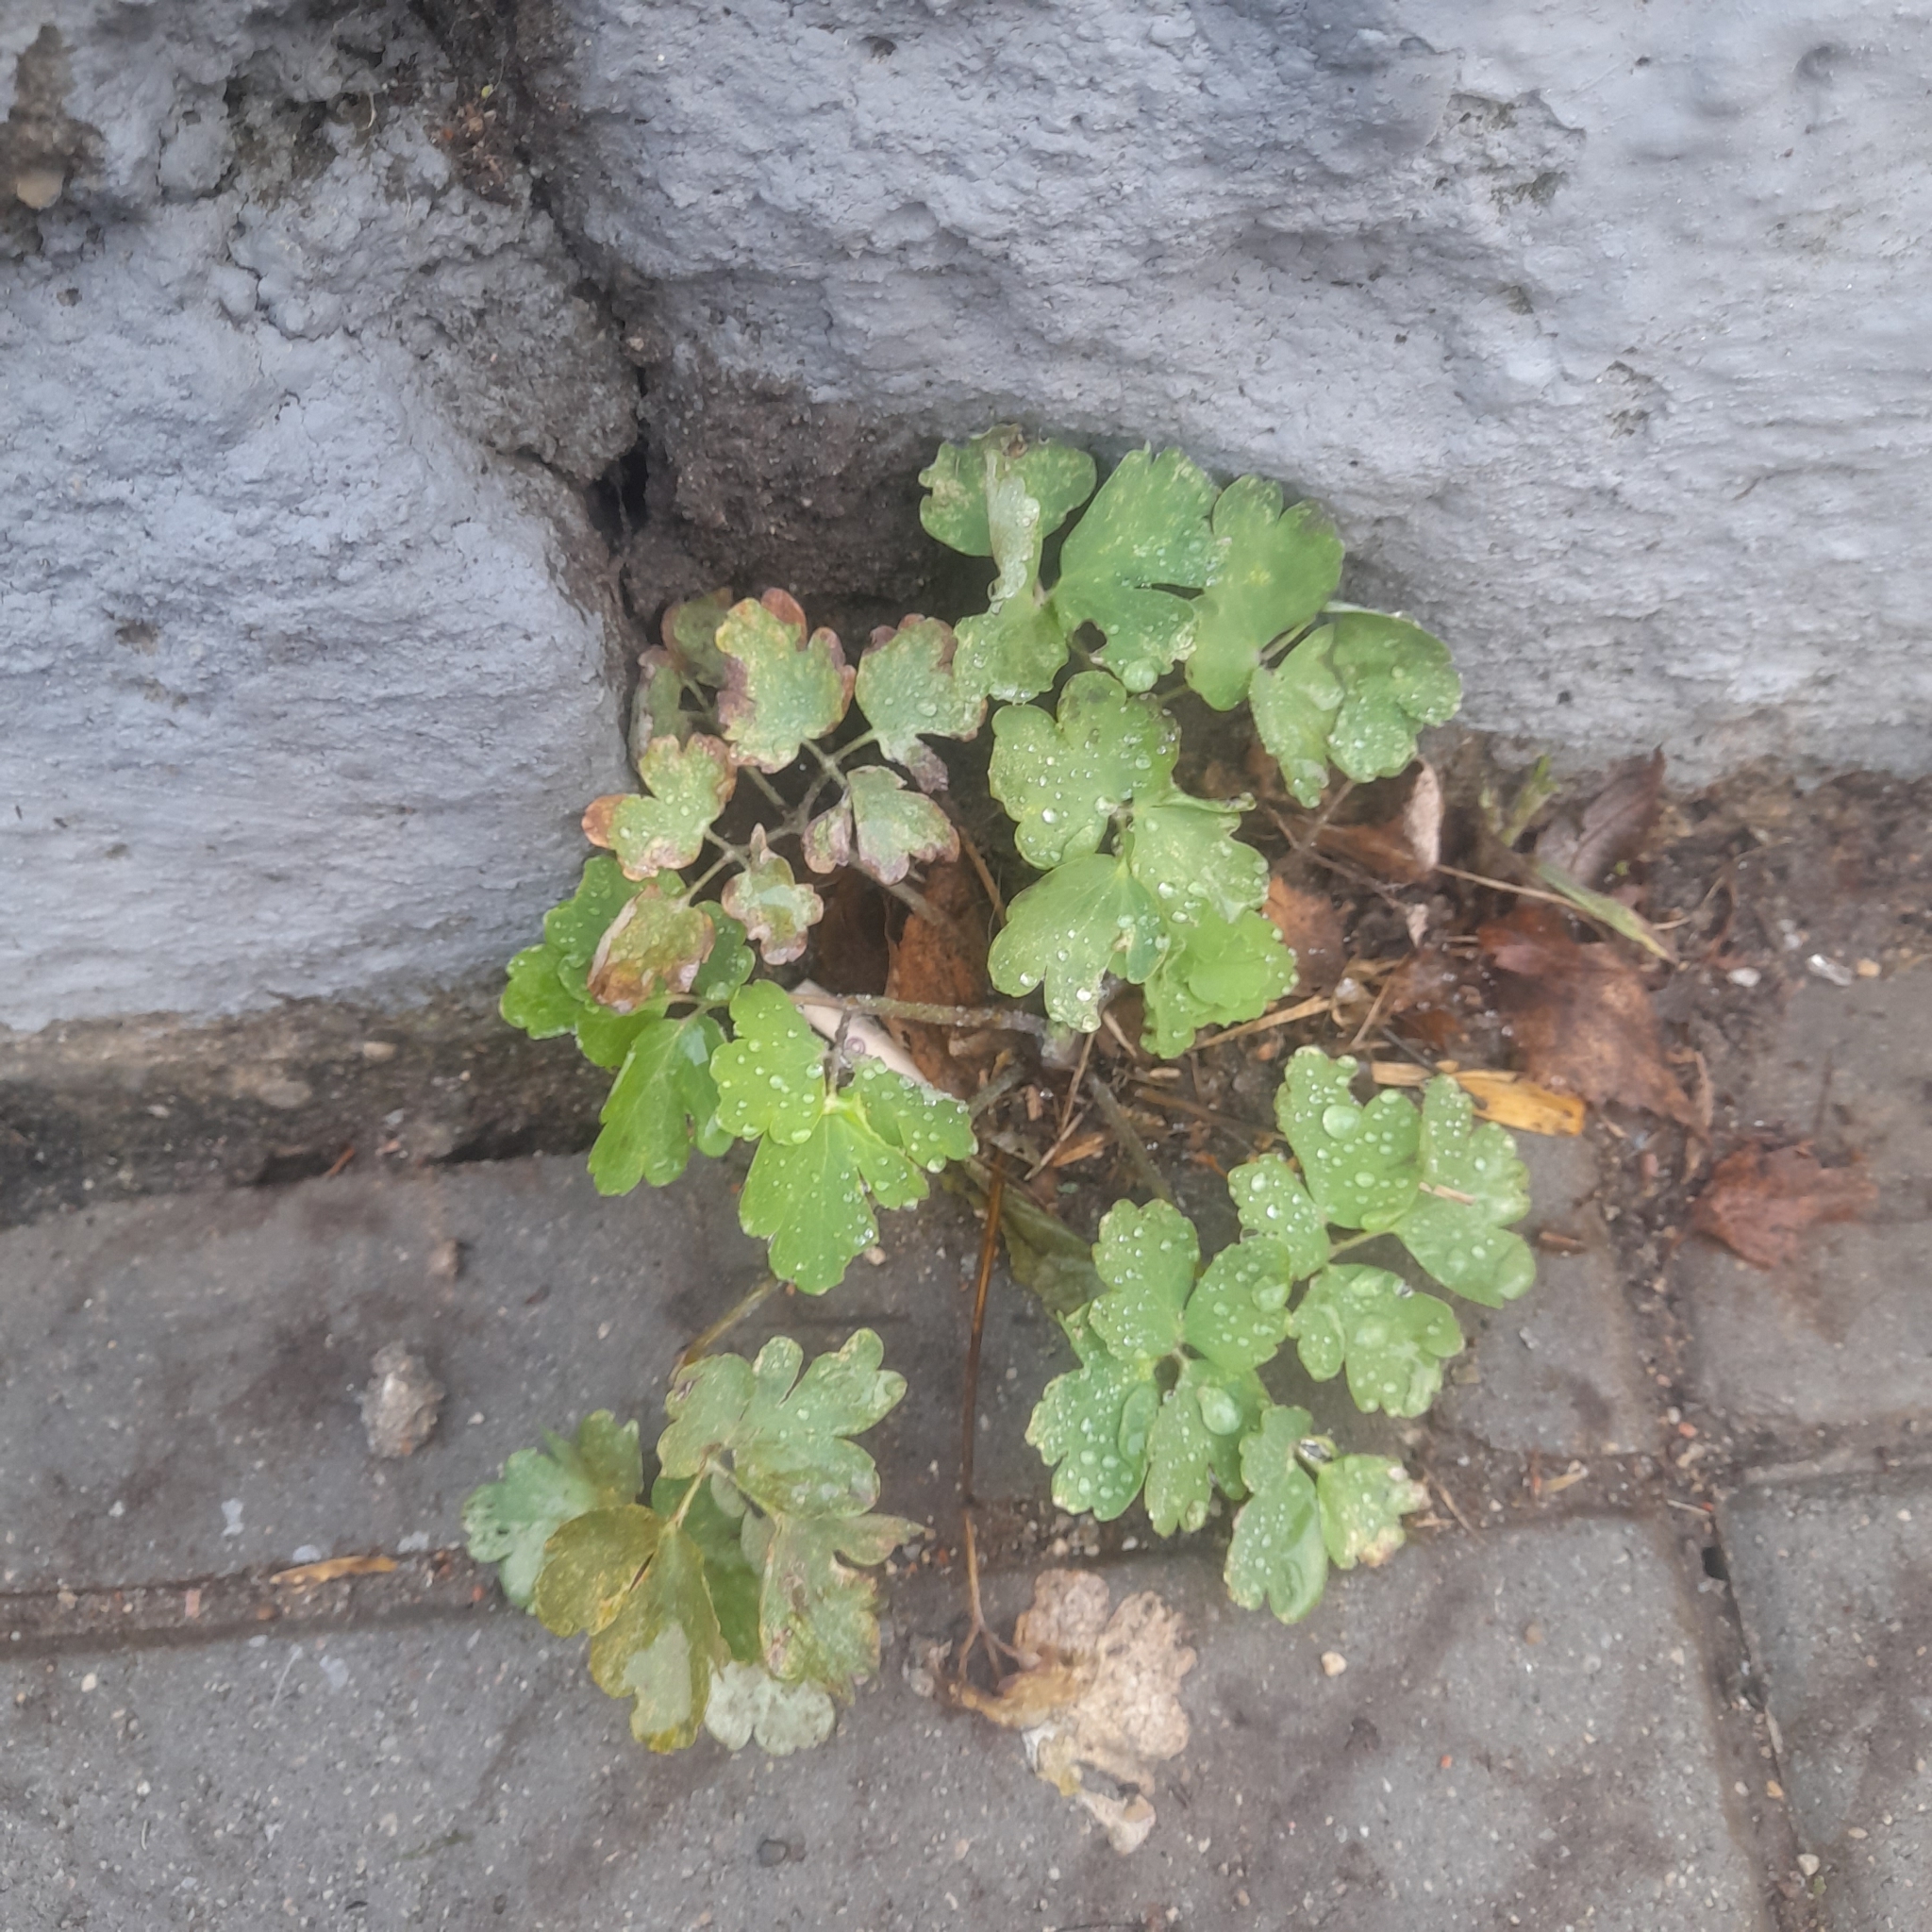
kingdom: Plantae
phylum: Tracheophyta
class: Magnoliopsida
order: Ranunculales
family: Ranunculaceae
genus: Aquilegia
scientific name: Aquilegia vulgaris
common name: Columbine
